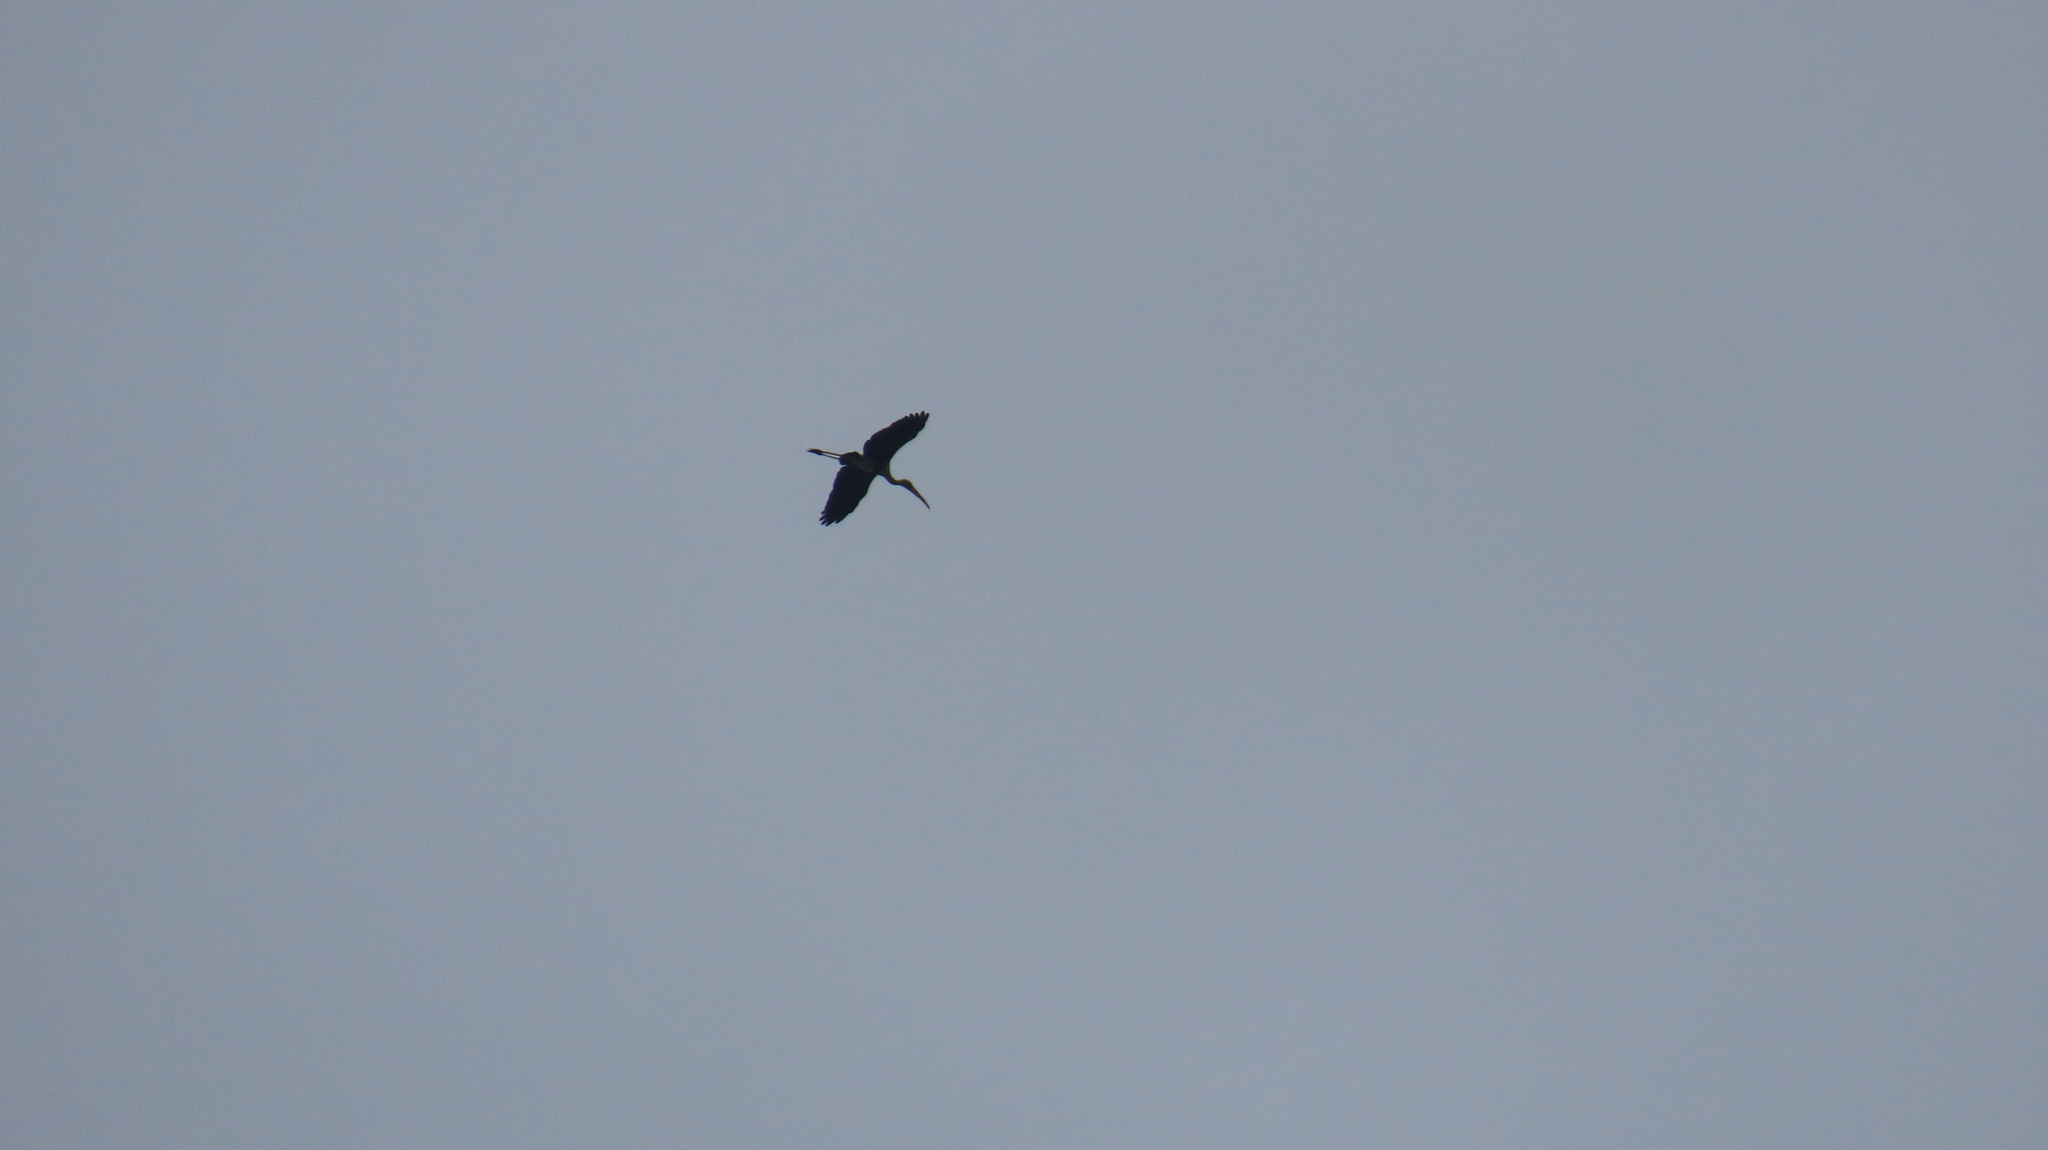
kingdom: Animalia
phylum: Chordata
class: Aves
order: Ciconiiformes
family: Ciconiidae
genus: Mycteria
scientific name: Mycteria leucocephala
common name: Painted stork
